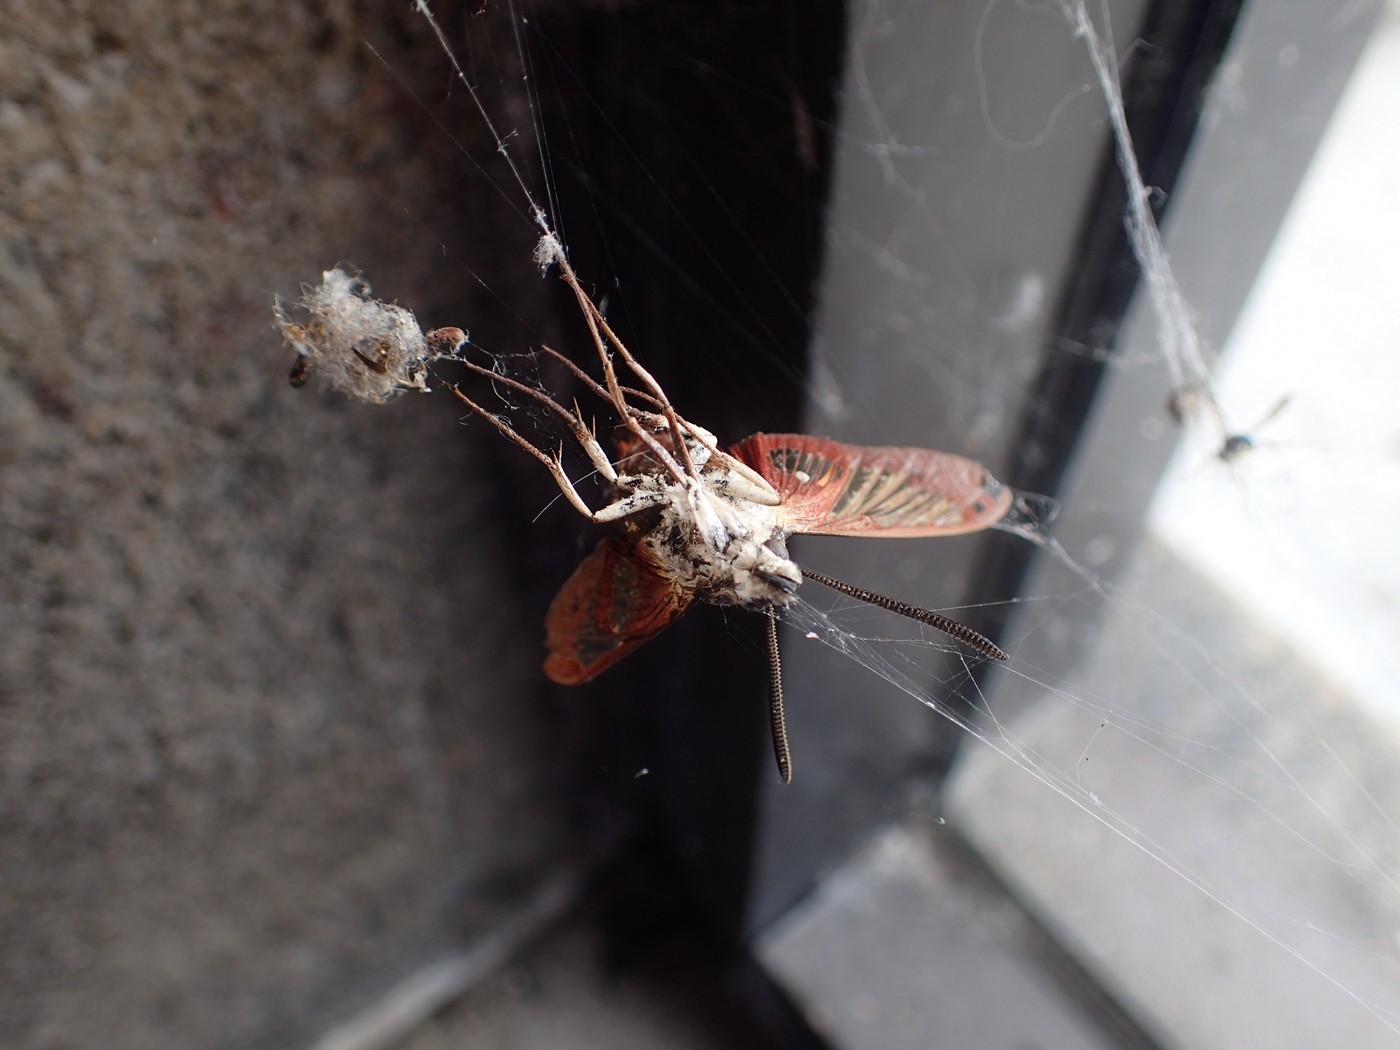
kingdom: Animalia
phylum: Arthropoda
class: Insecta
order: Lepidoptera
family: Sphingidae
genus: Hemaris
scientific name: Hemaris thysbe
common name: Common clear-wing
